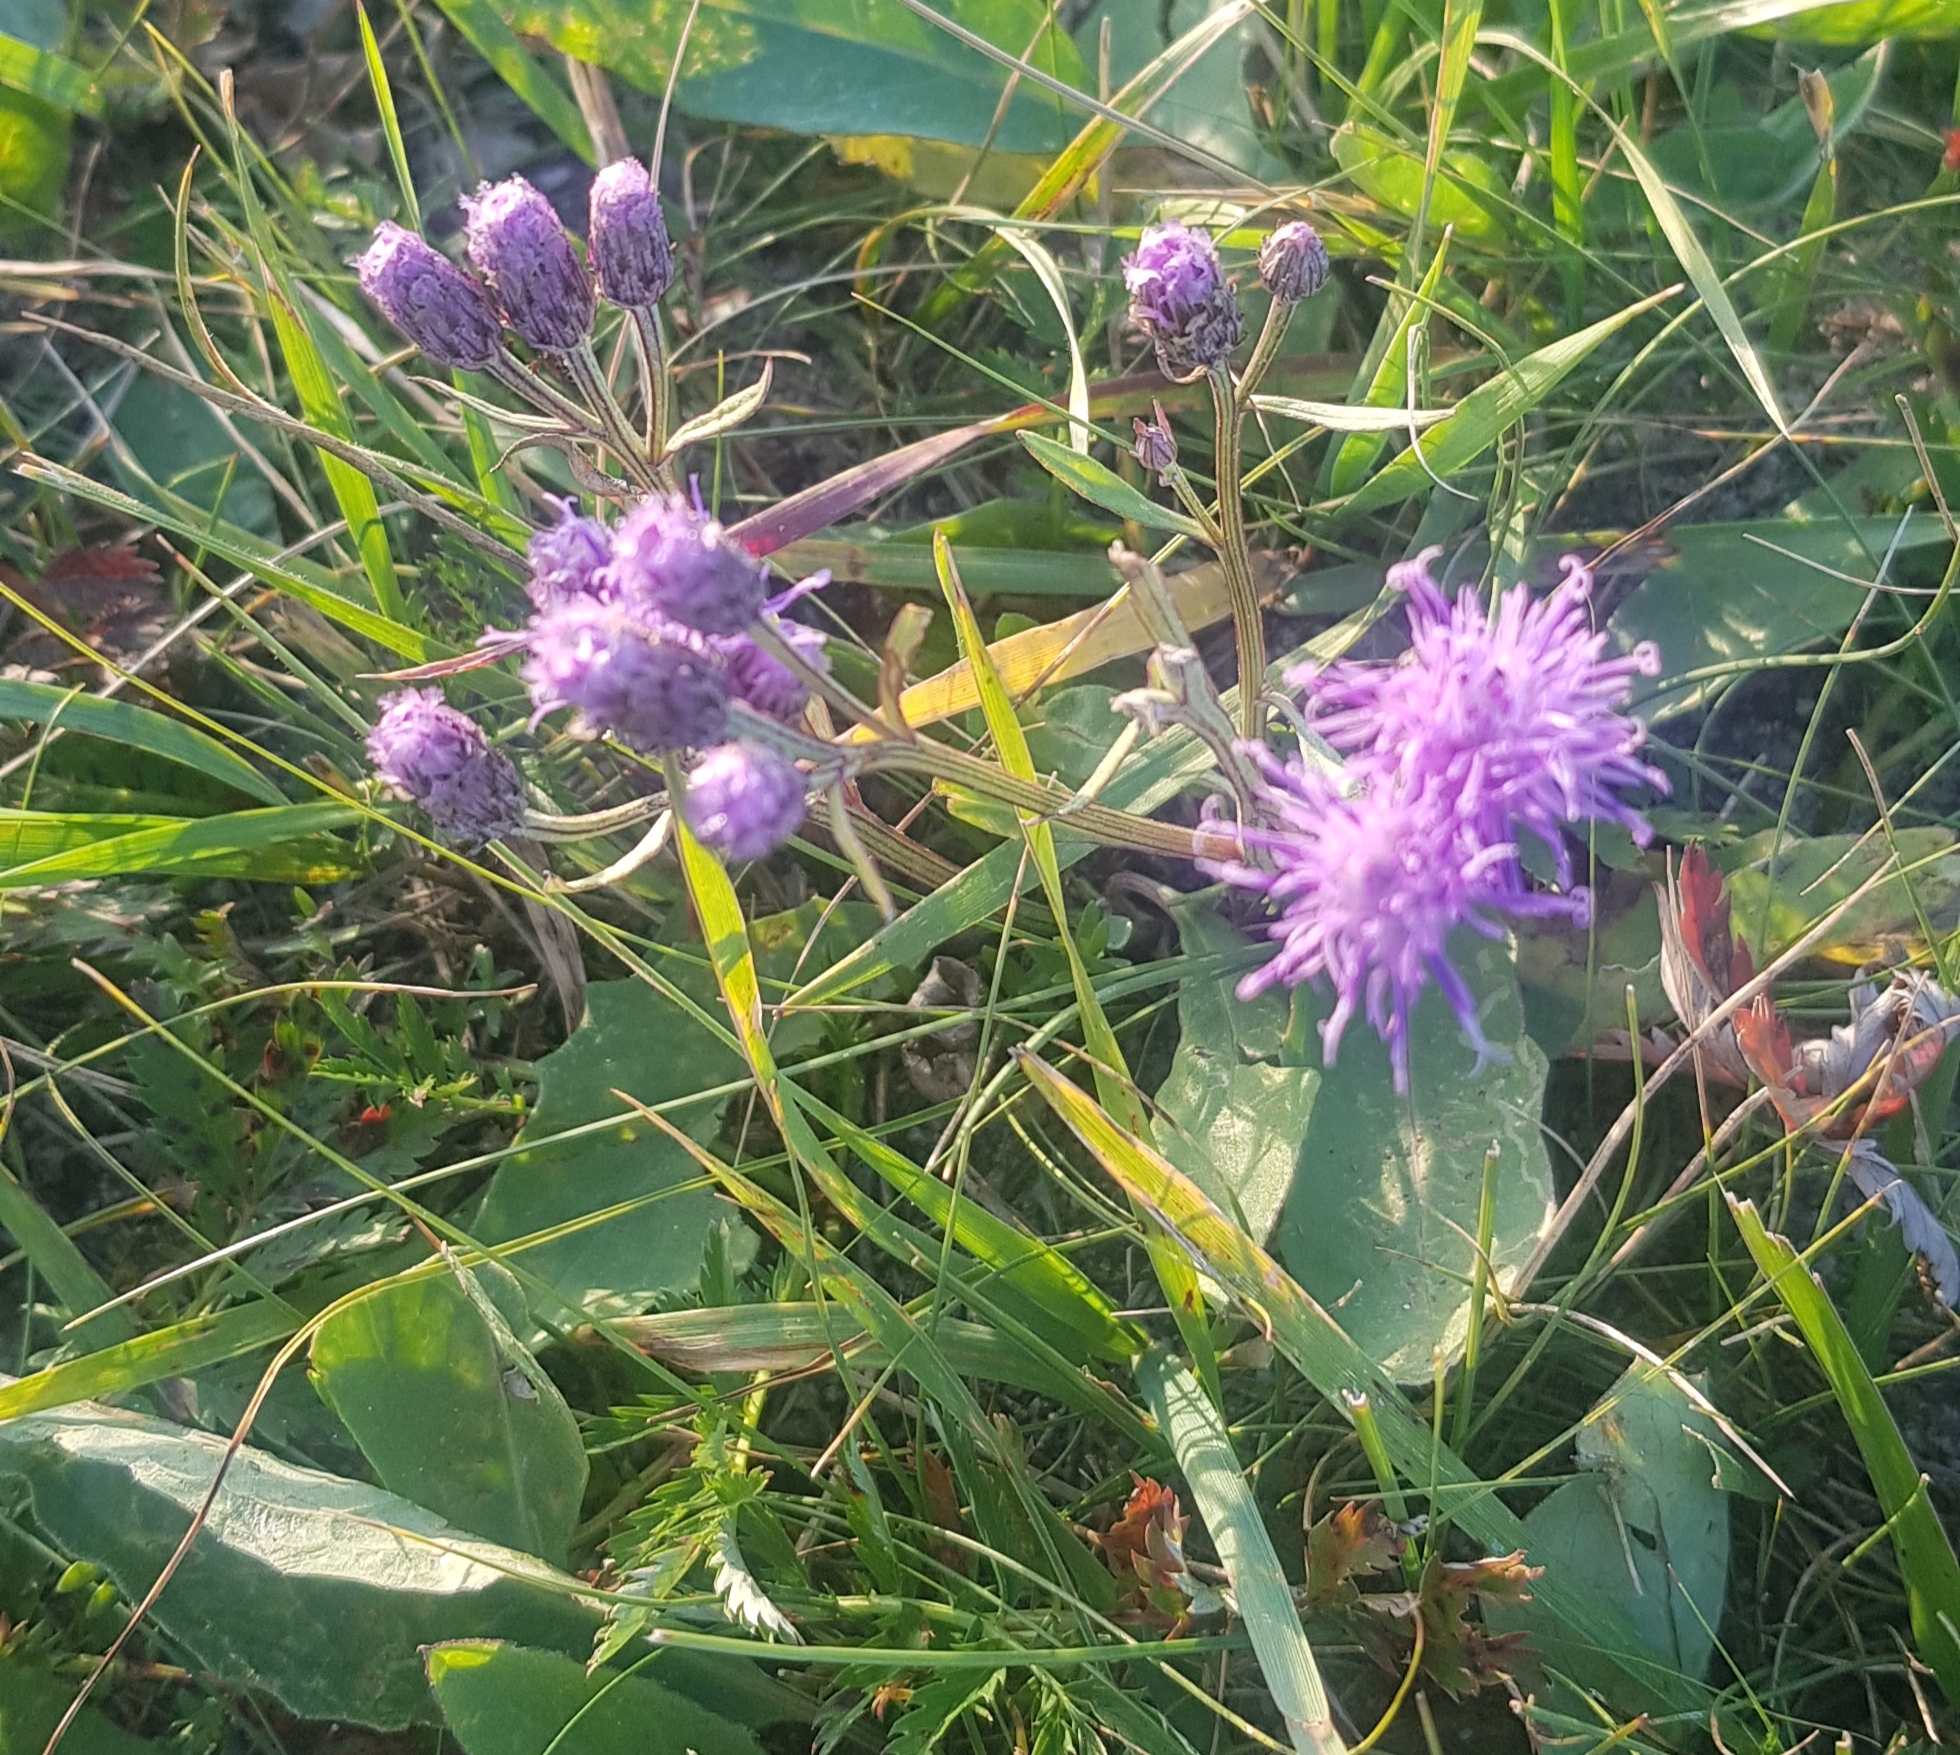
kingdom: Plantae
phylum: Tracheophyta
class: Magnoliopsida
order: Asterales
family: Asteraceae
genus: Saussurea
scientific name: Saussurea amara
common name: Alberta sawwort
